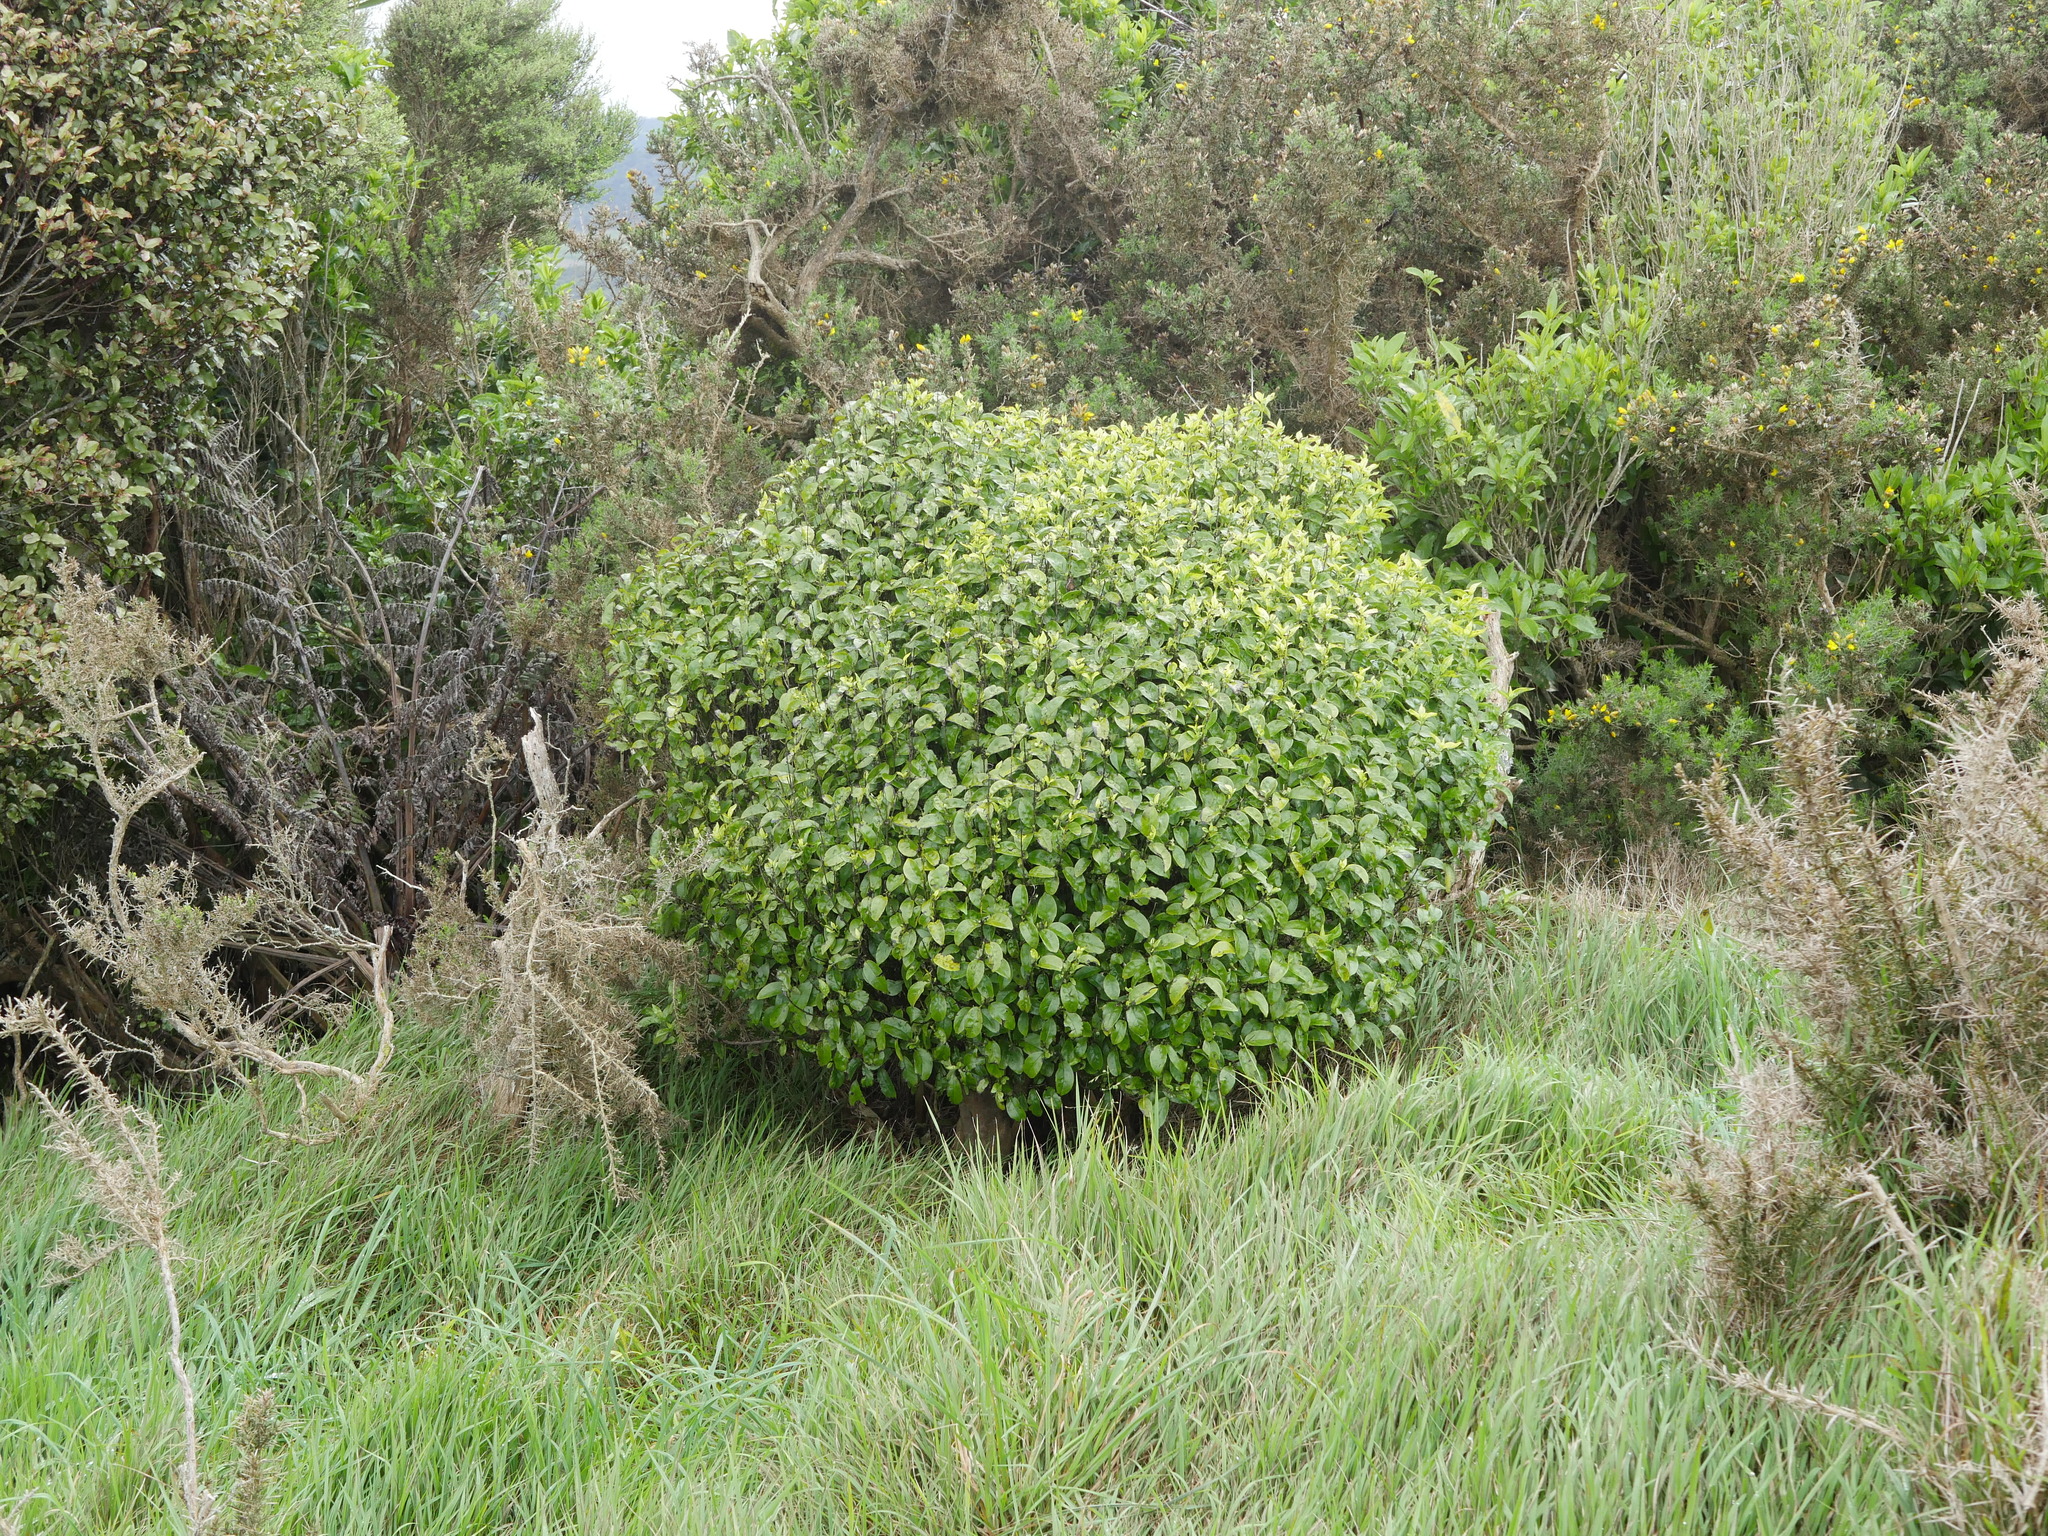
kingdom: Plantae
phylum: Tracheophyta
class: Magnoliopsida
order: Gentianales
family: Loganiaceae
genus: Geniostoma
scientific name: Geniostoma ligustrifolium
